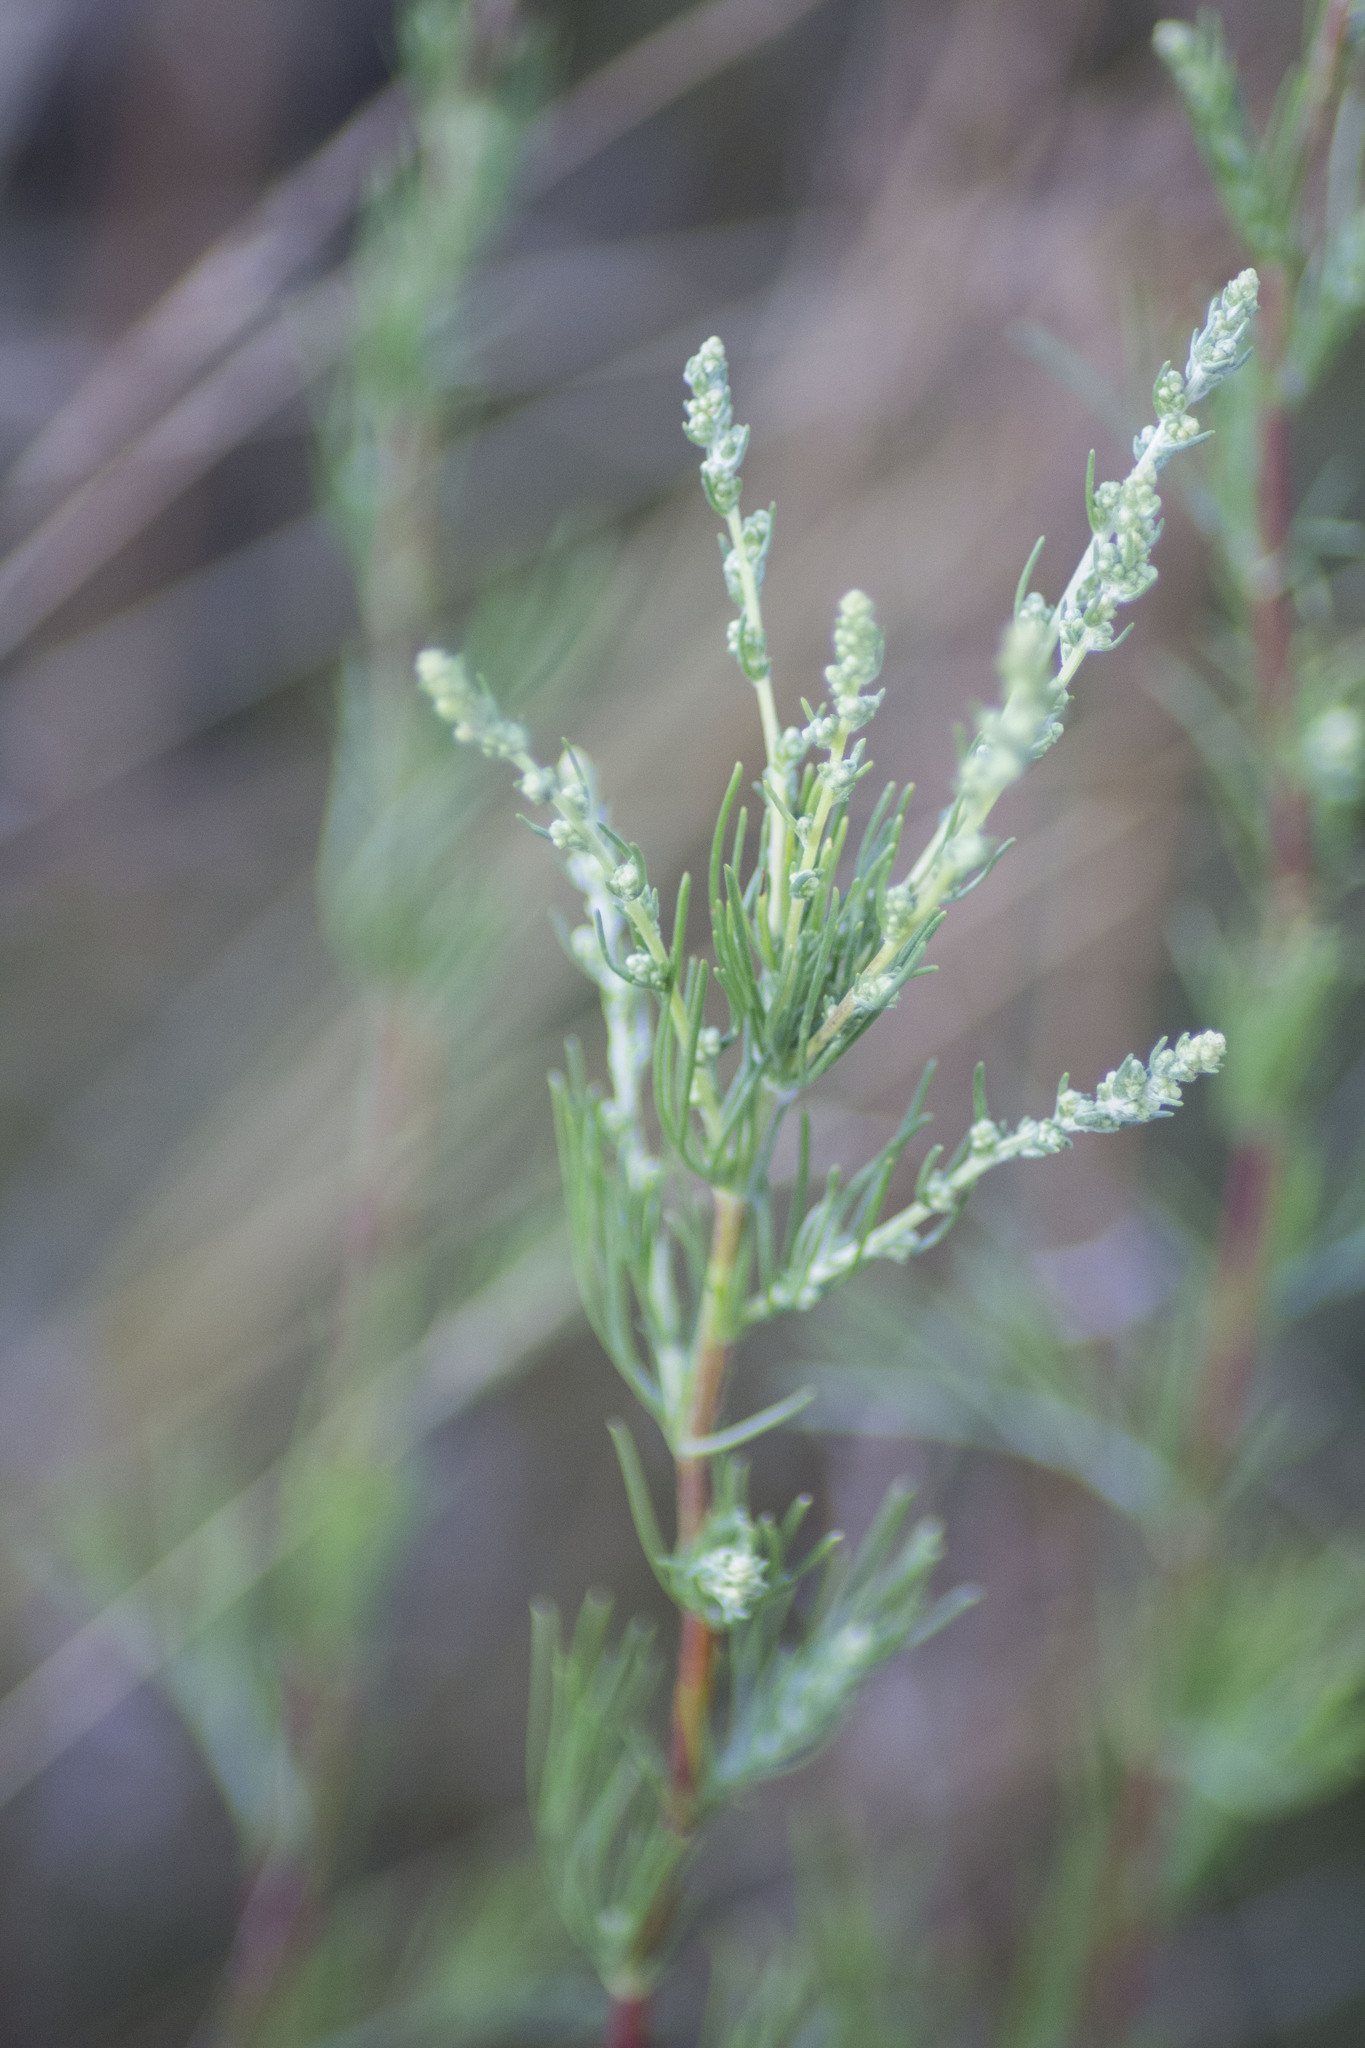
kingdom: Plantae
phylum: Tracheophyta
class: Magnoliopsida
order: Asterales
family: Asteraceae
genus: Artemisia
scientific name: Artemisia campestris
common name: Field wormwood
